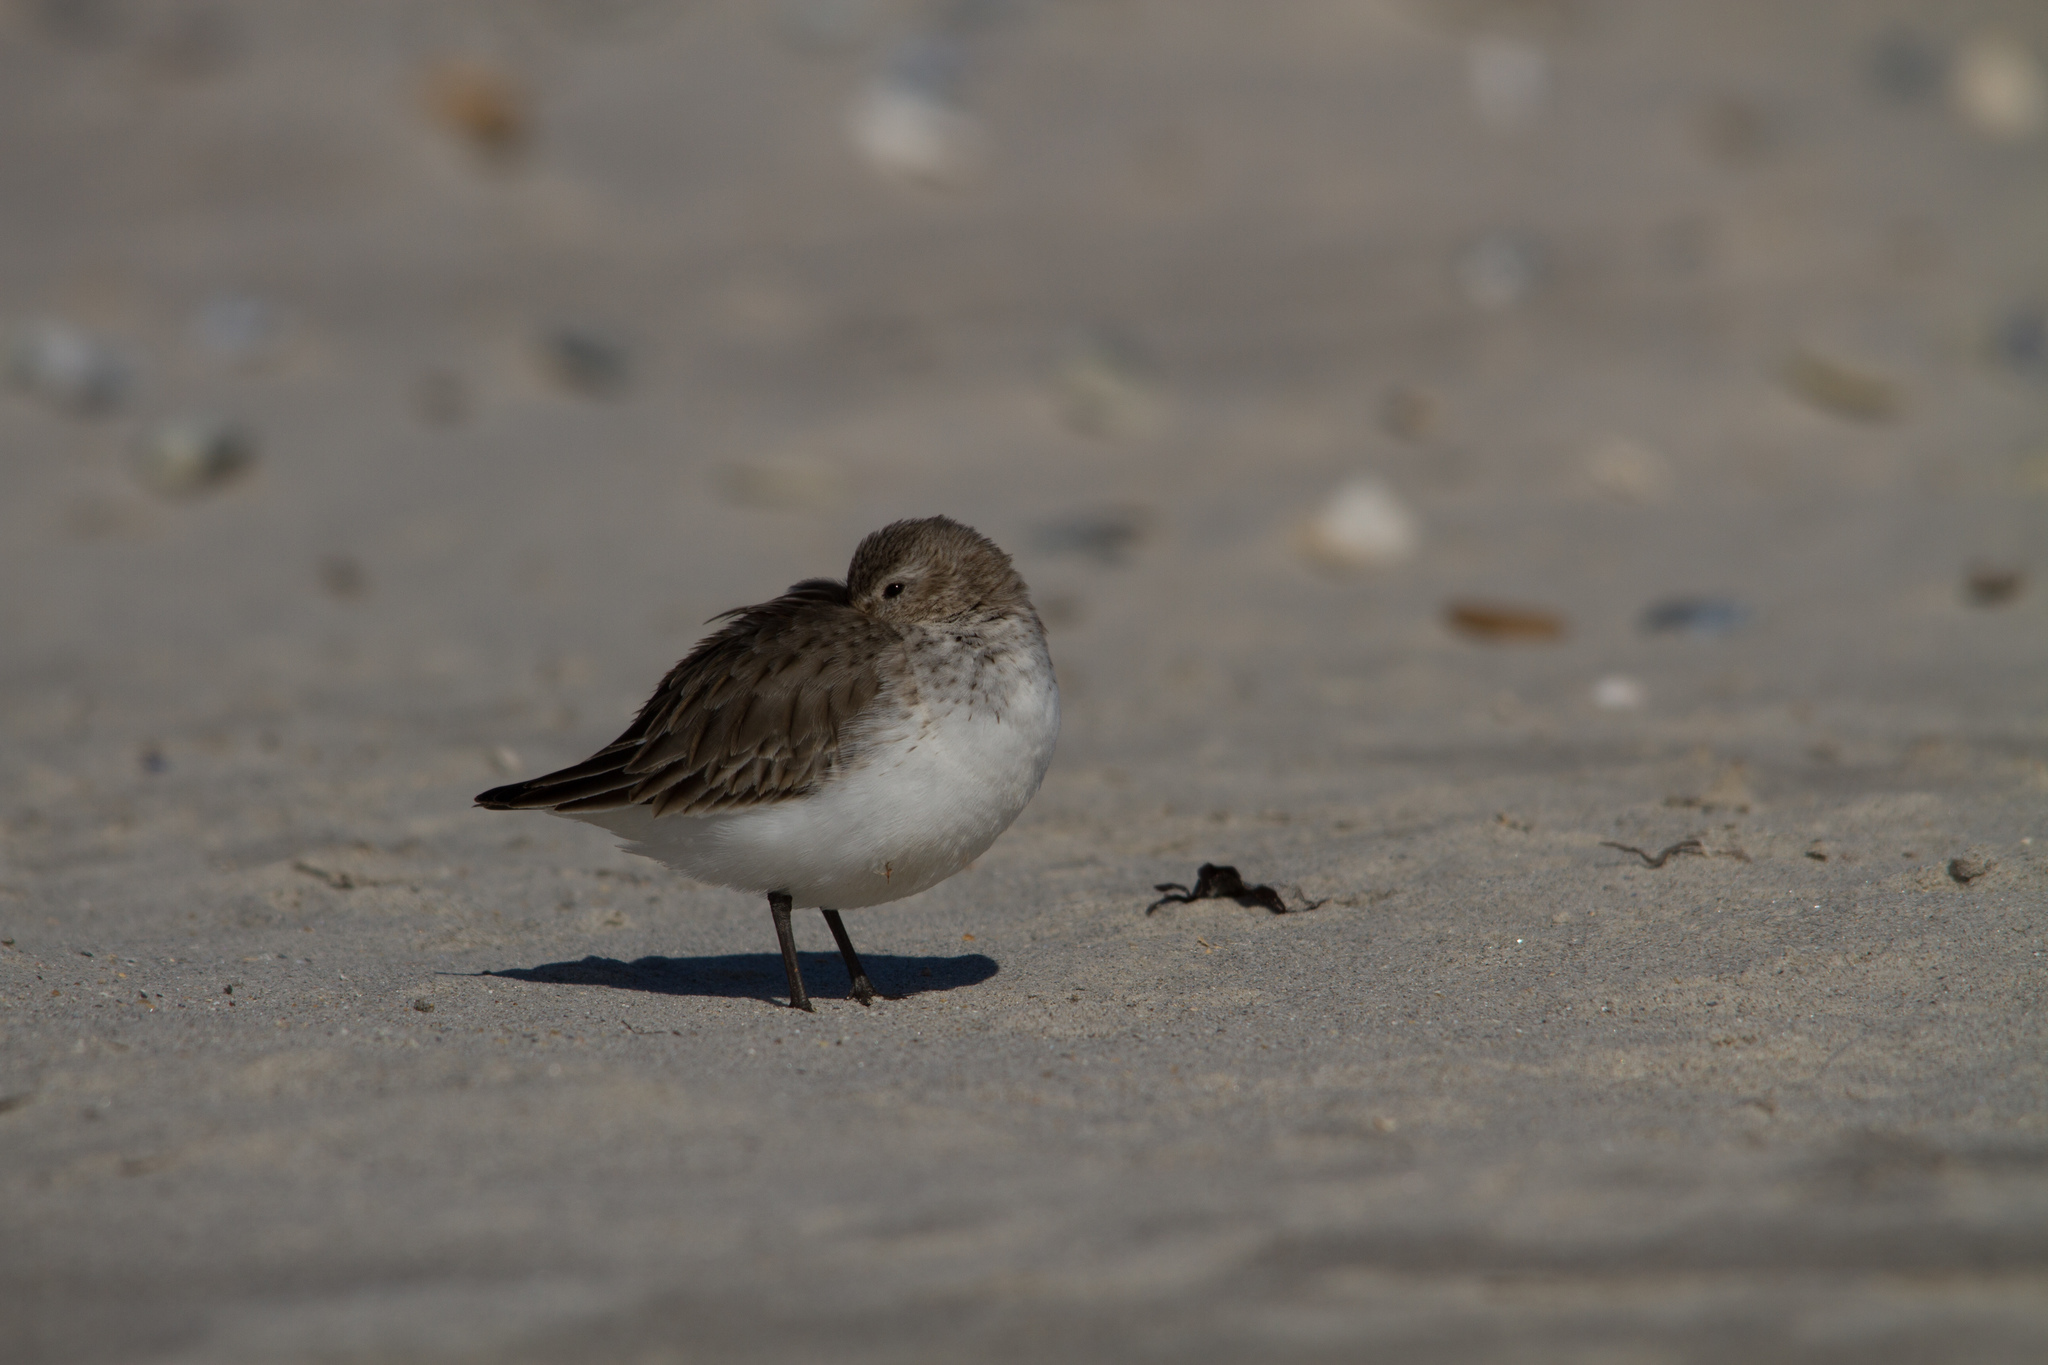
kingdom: Animalia
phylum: Chordata
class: Aves
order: Charadriiformes
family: Scolopacidae
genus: Calidris
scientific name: Calidris alpina
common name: Dunlin
